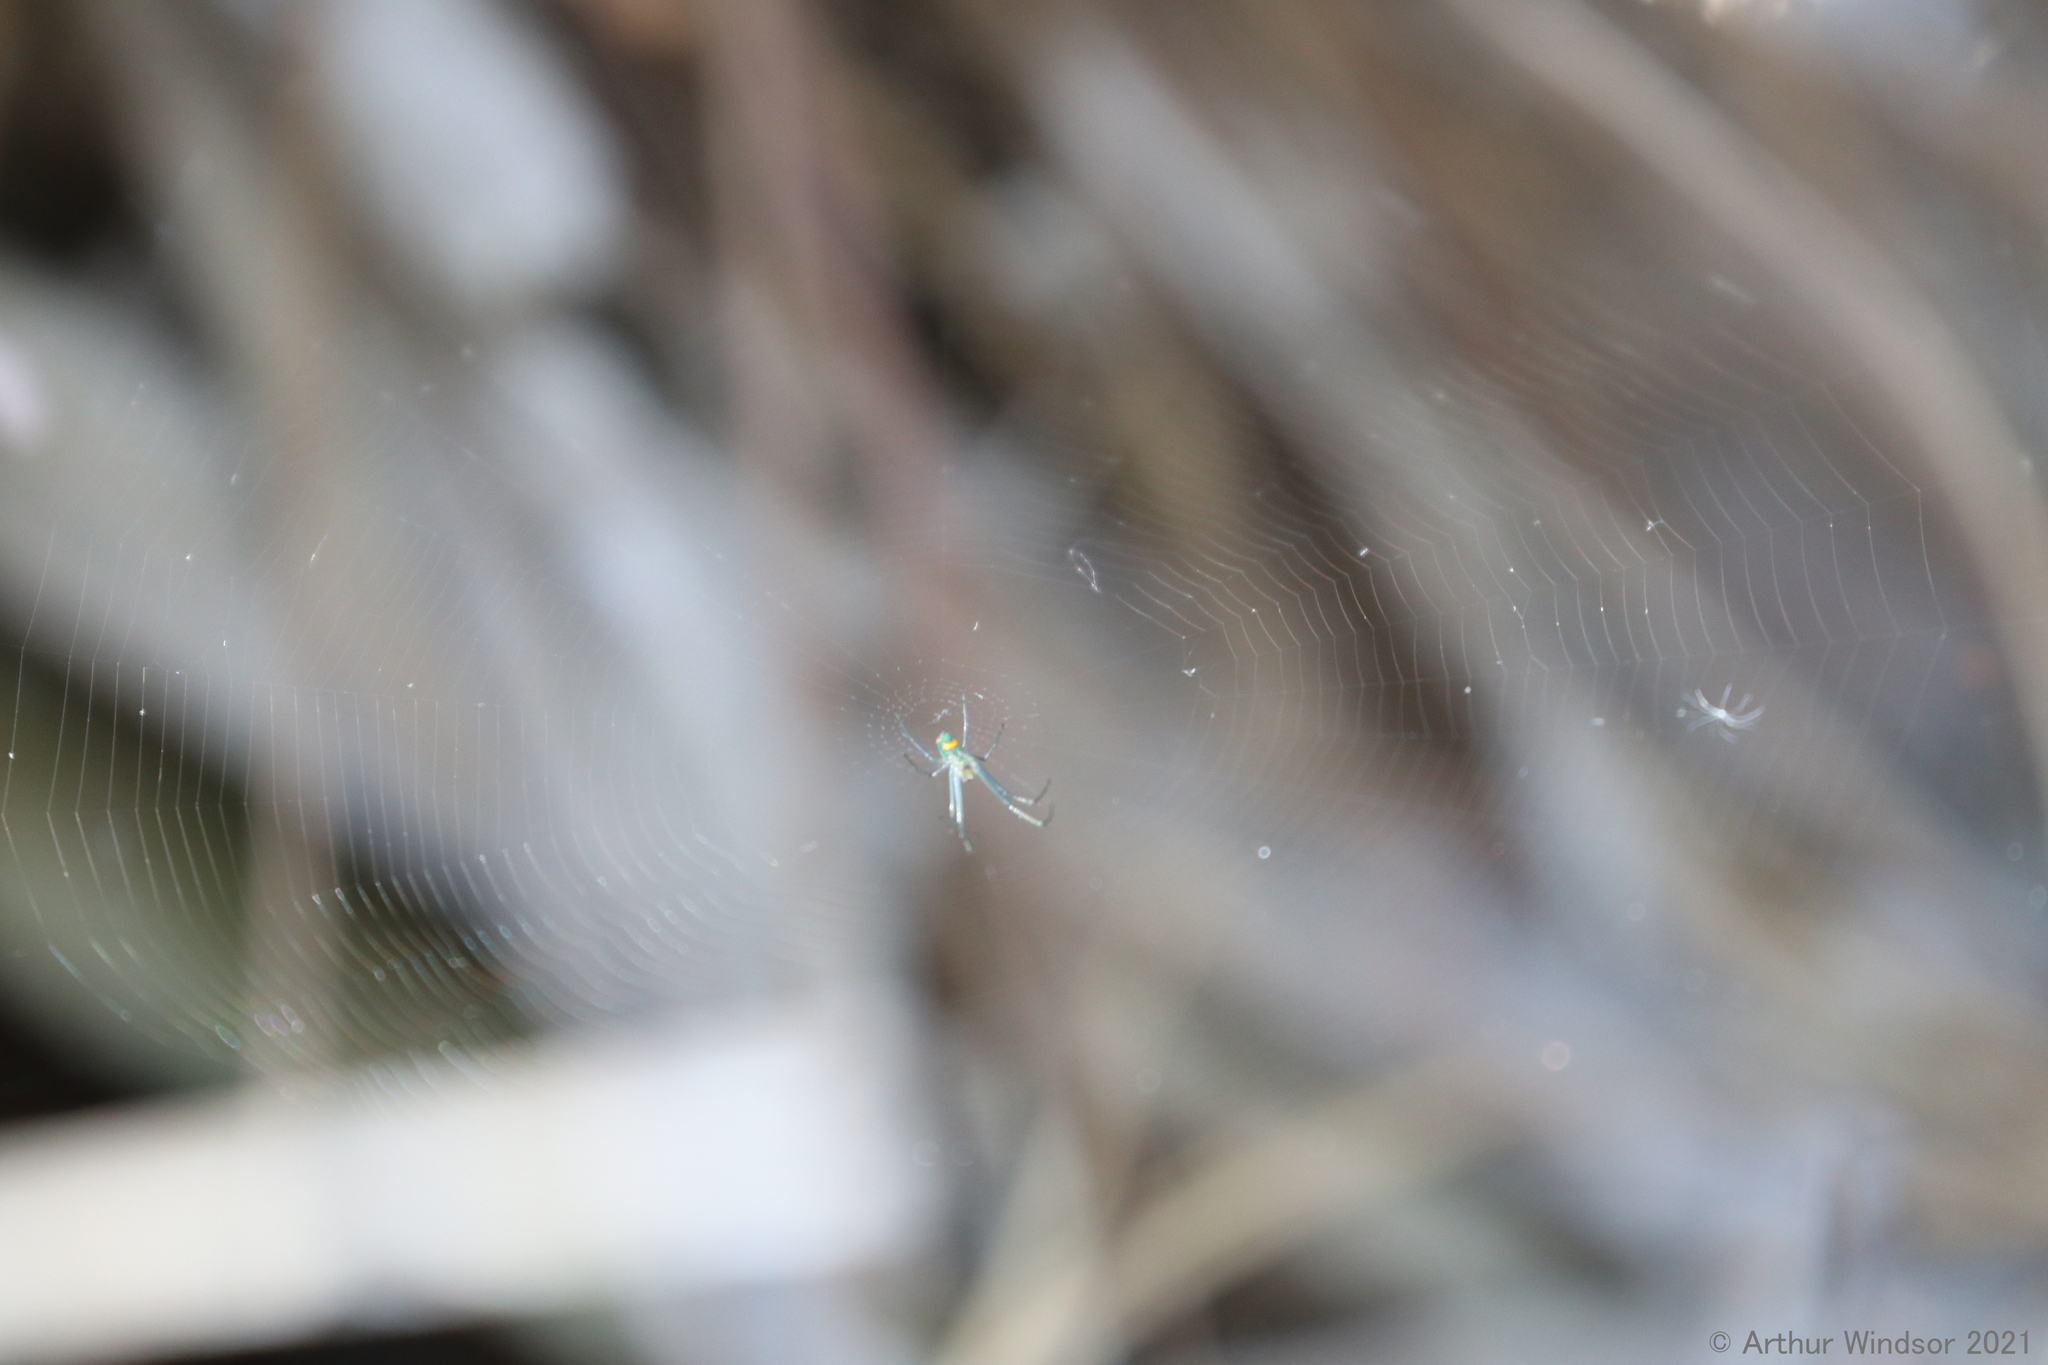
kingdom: Animalia
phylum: Arthropoda
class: Arachnida
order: Araneae
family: Tetragnathidae
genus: Leucauge
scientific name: Leucauge argyrobapta
